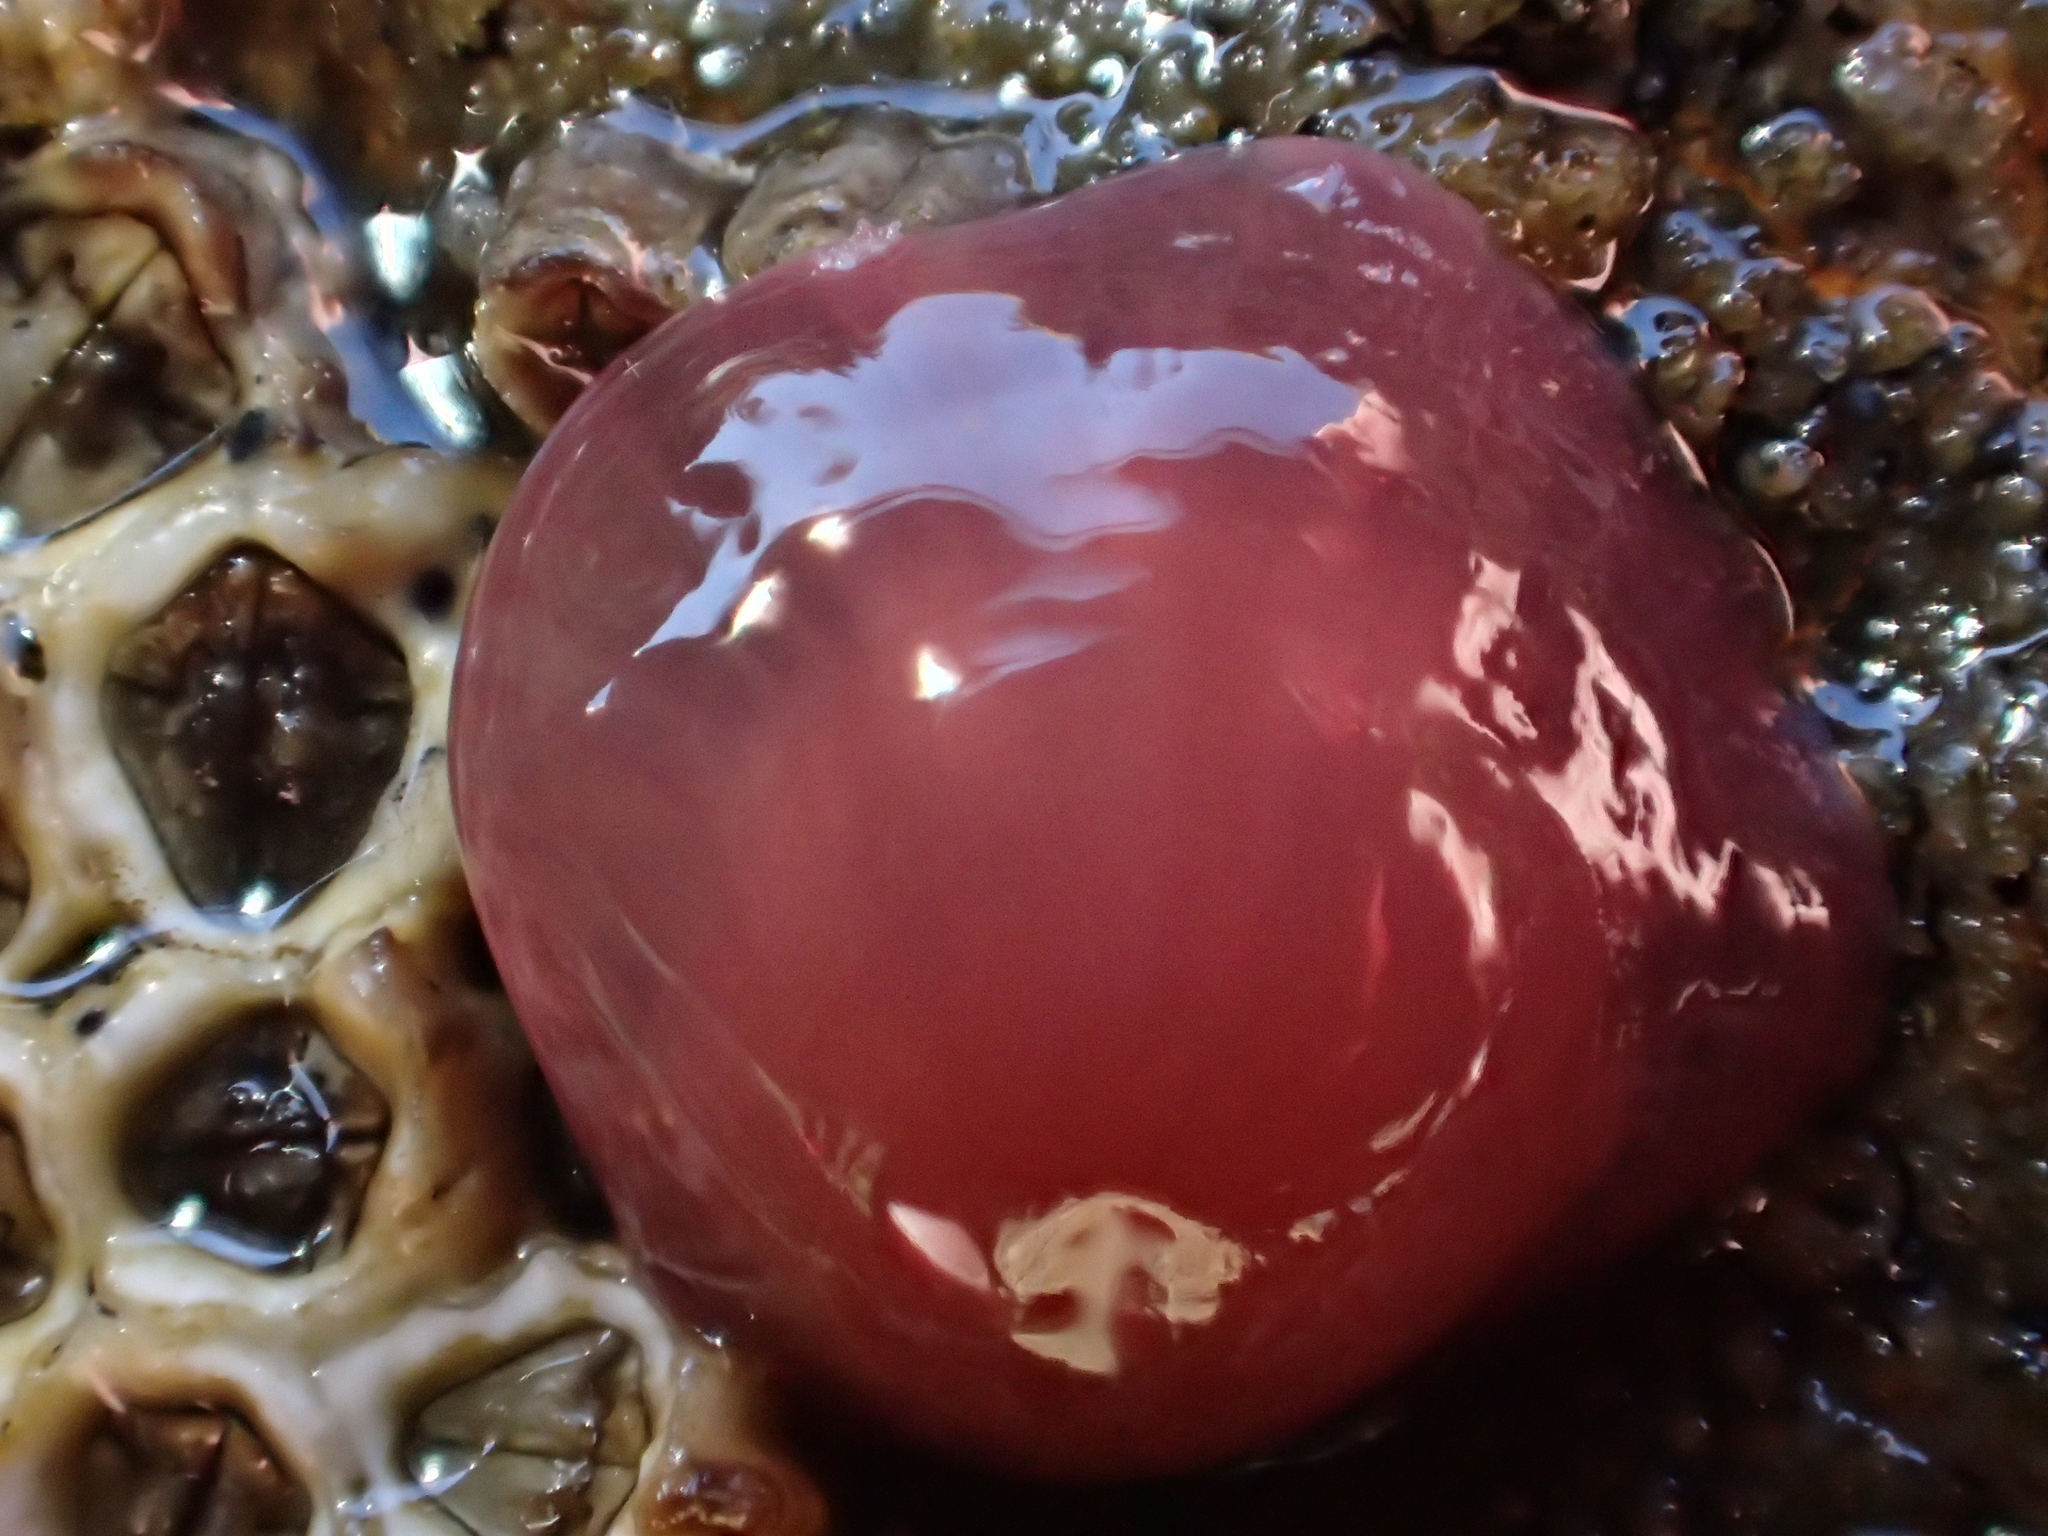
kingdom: Animalia
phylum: Cnidaria
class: Anthozoa
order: Actiniaria
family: Actiniidae
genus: Actinia
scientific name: Actinia tenebrosa
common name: Waratah anemone
